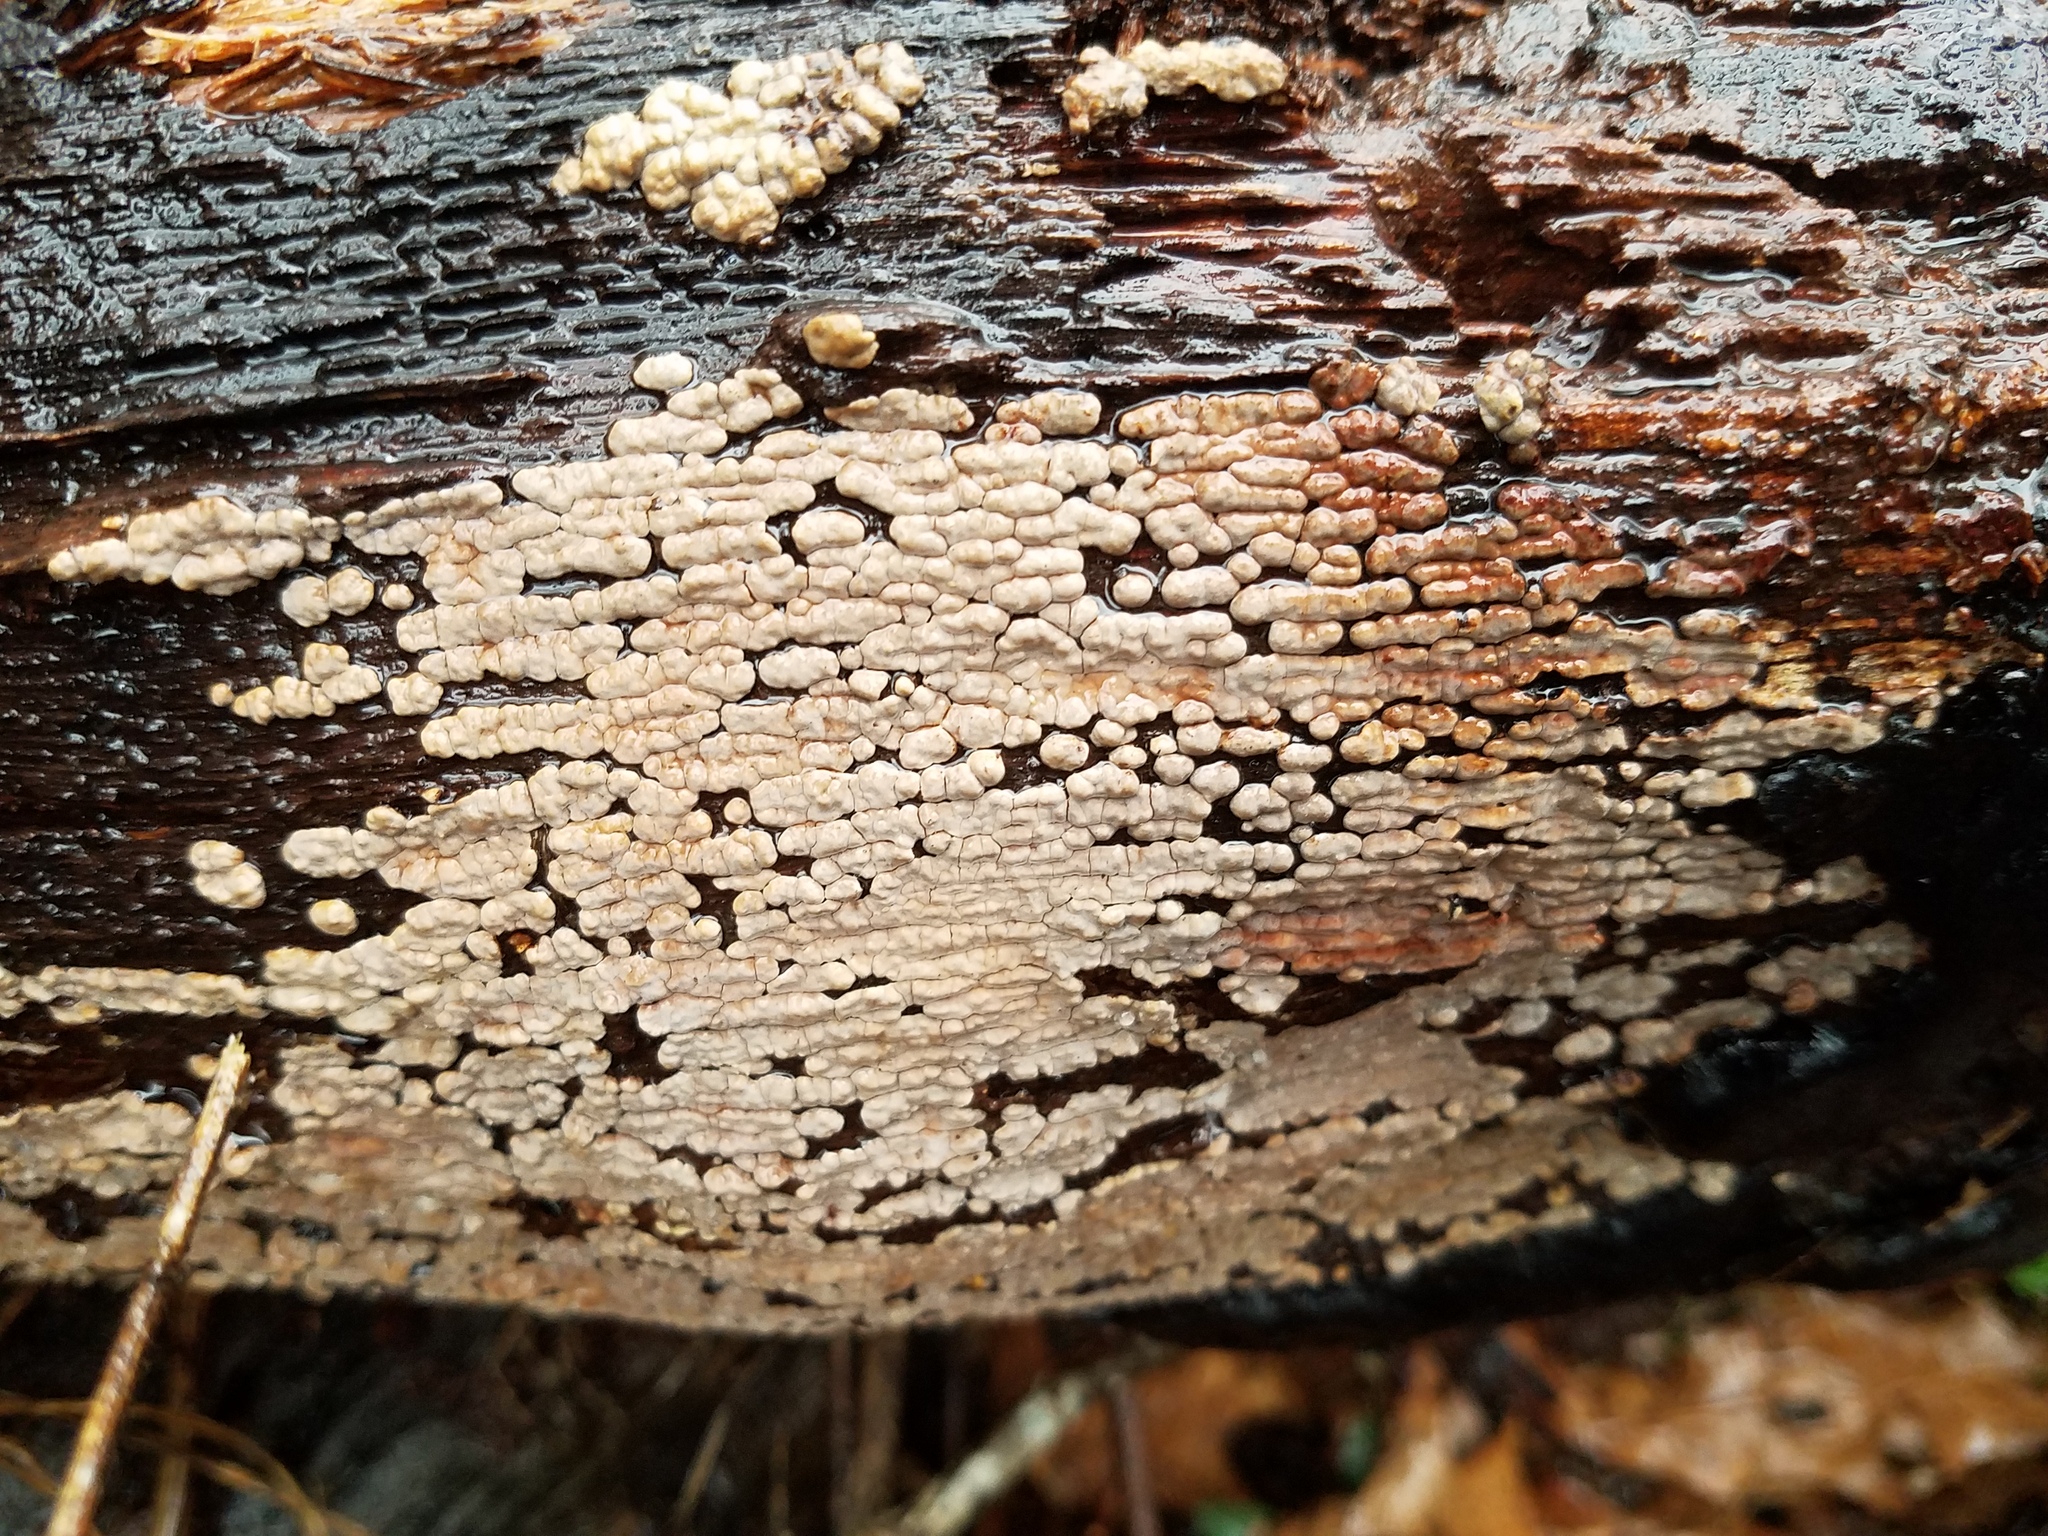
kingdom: Fungi
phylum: Basidiomycota
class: Agaricomycetes
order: Russulales
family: Stereaceae
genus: Xylobolus
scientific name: Xylobolus frustulatus
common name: Ceramic parchment
